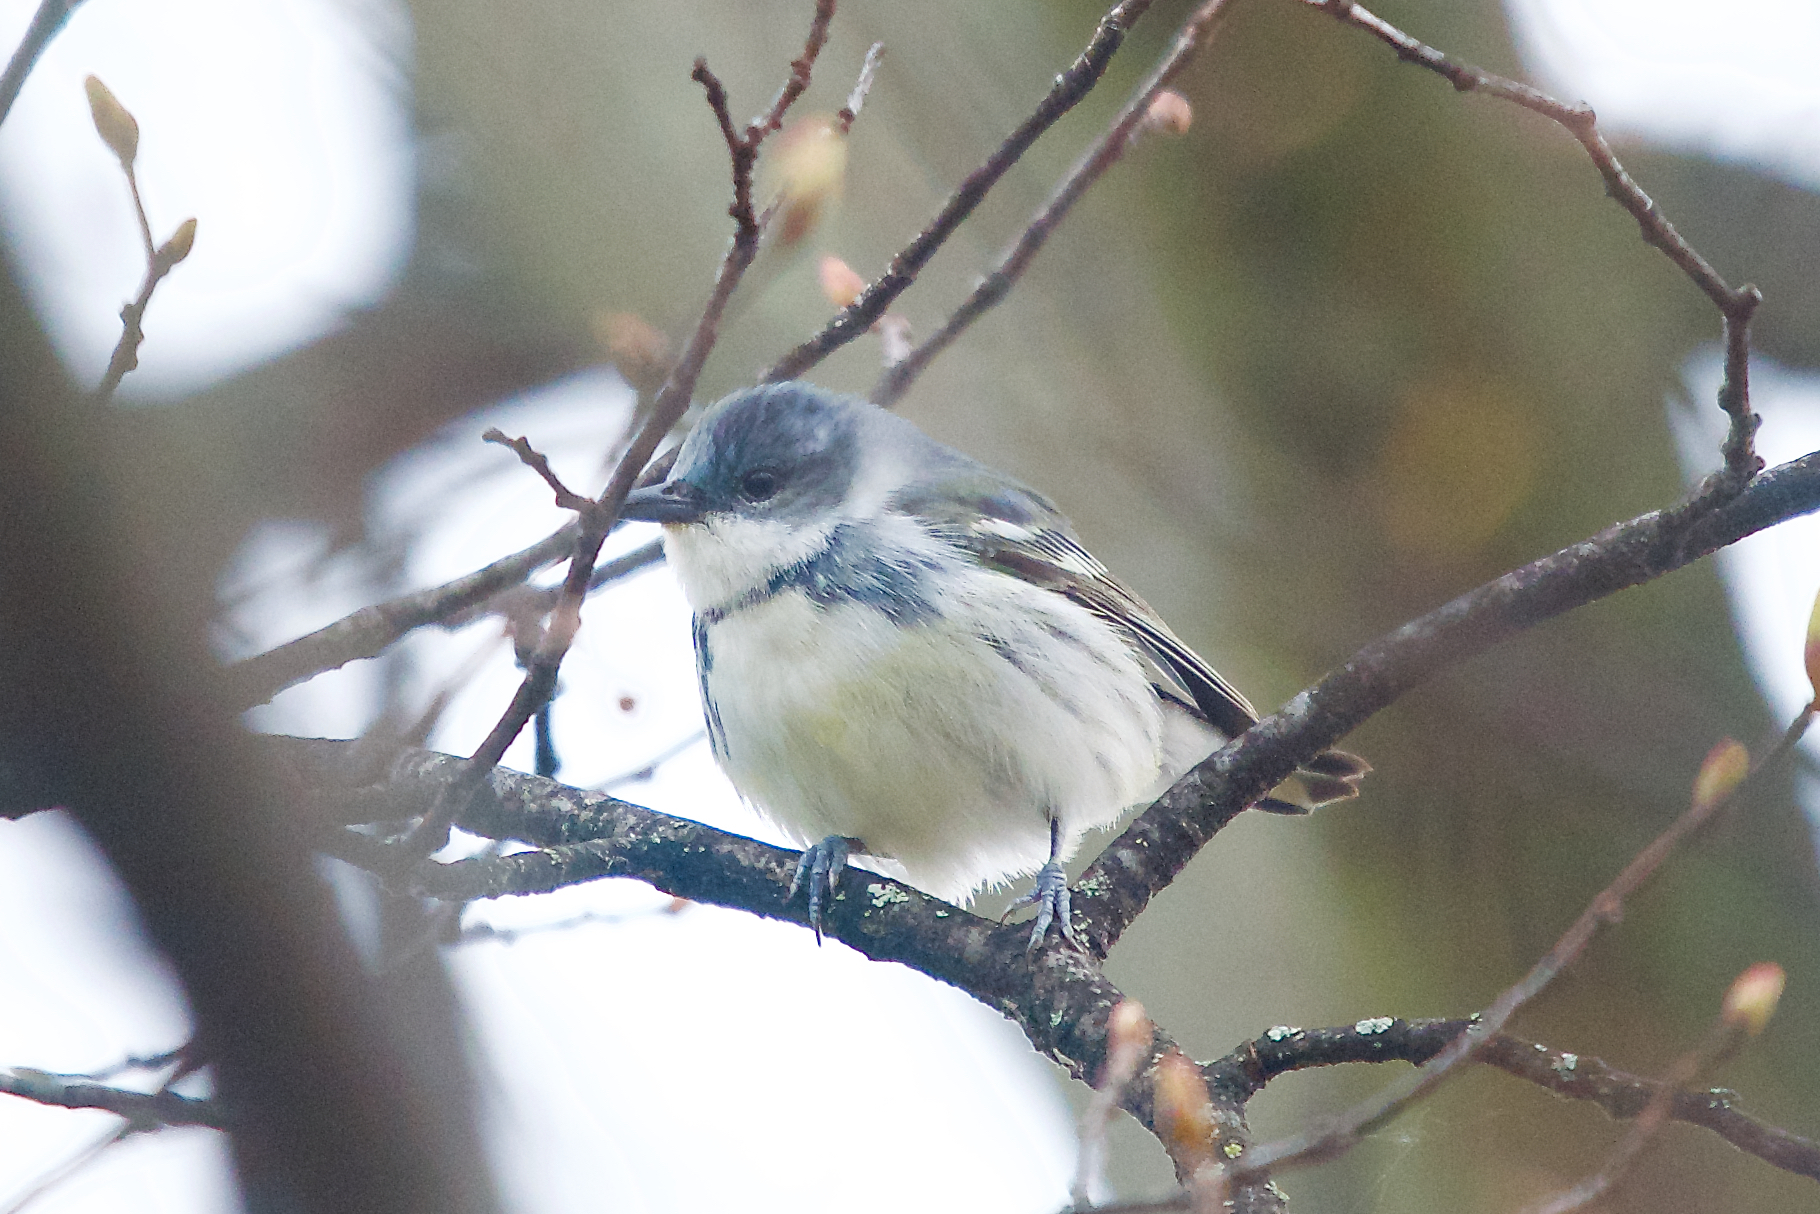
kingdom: Animalia
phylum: Chordata
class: Aves
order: Passeriformes
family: Parulidae
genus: Setophaga
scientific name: Setophaga cerulea
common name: Cerulean warbler
